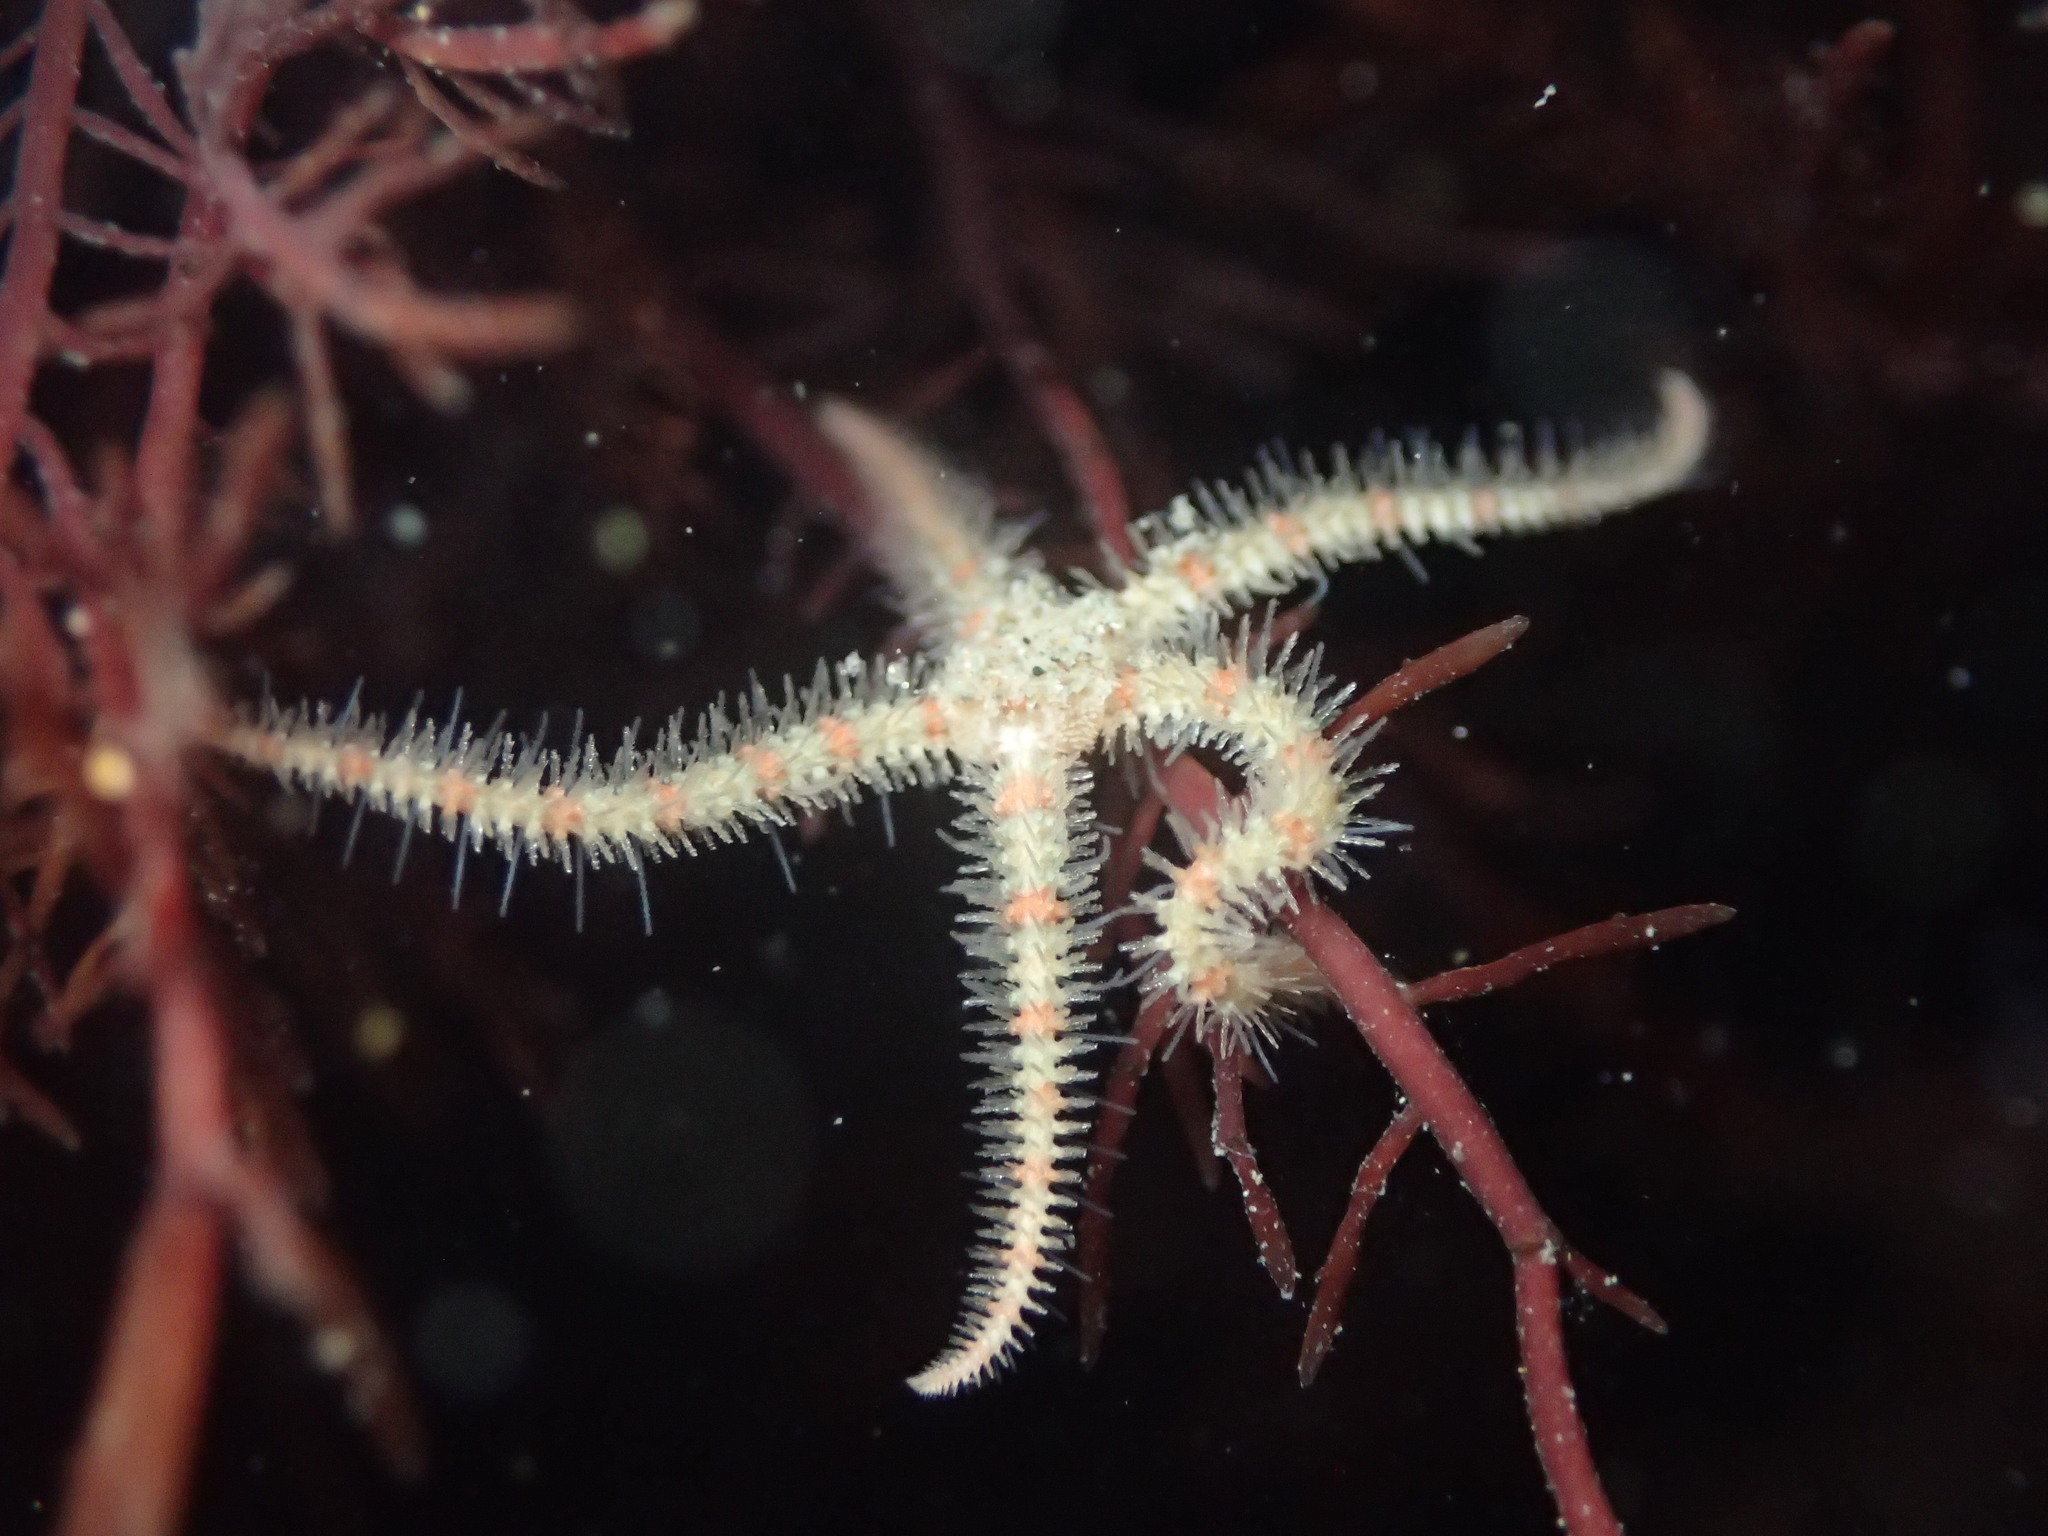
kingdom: Animalia
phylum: Echinodermata
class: Ophiuroidea
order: Amphilepidida
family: Ophiotrichidae
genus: Ophiothrix
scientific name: Ophiothrix spiculata
